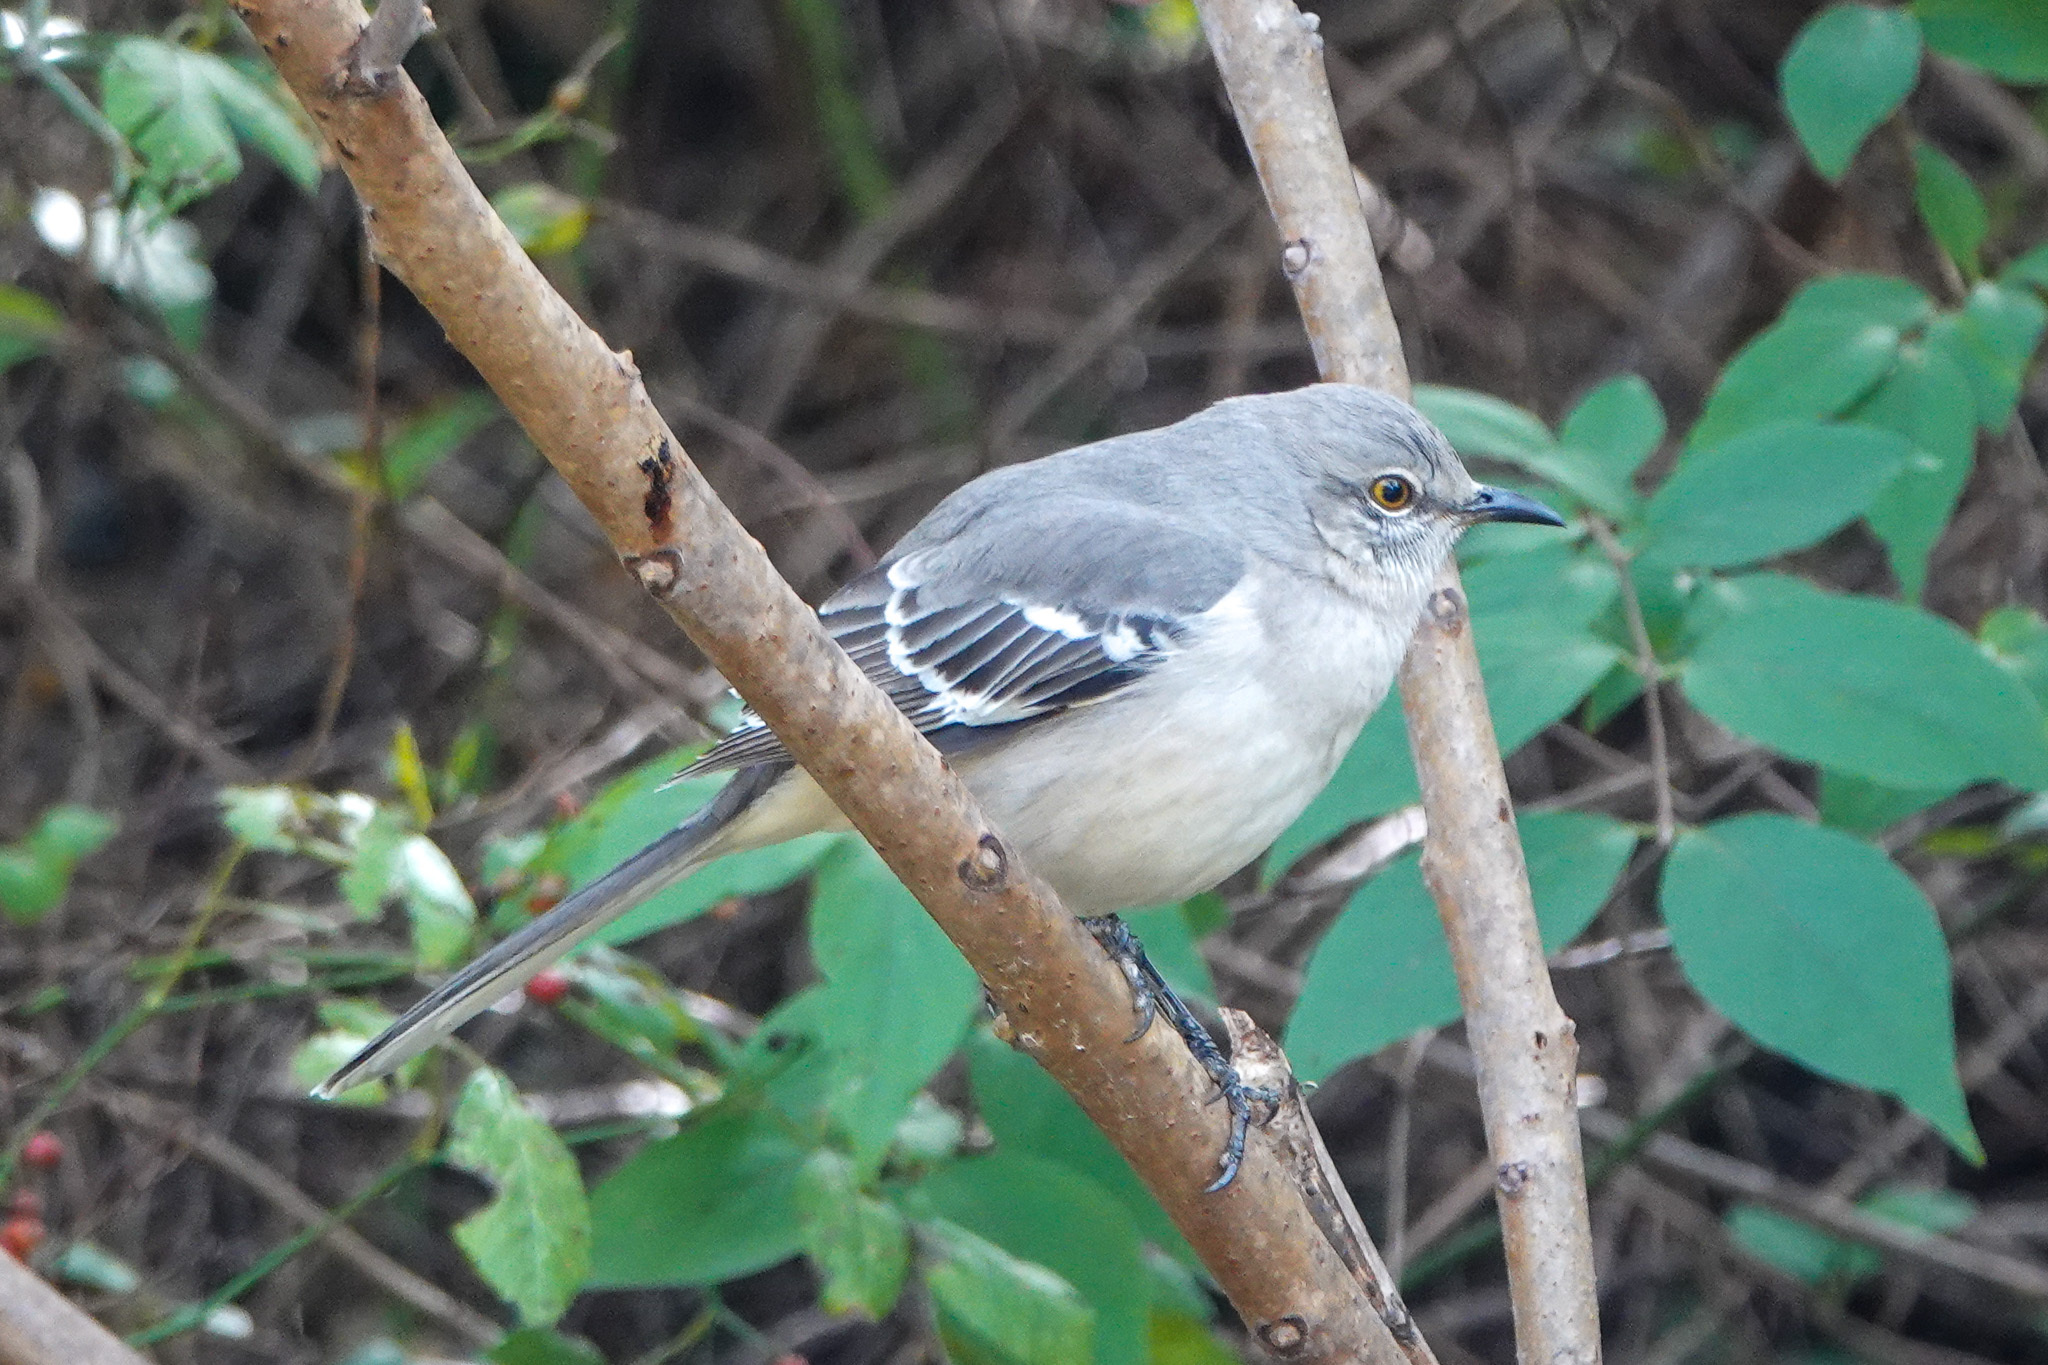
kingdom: Animalia
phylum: Chordata
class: Aves
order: Passeriformes
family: Mimidae
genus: Mimus
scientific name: Mimus polyglottos
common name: Northern mockingbird
